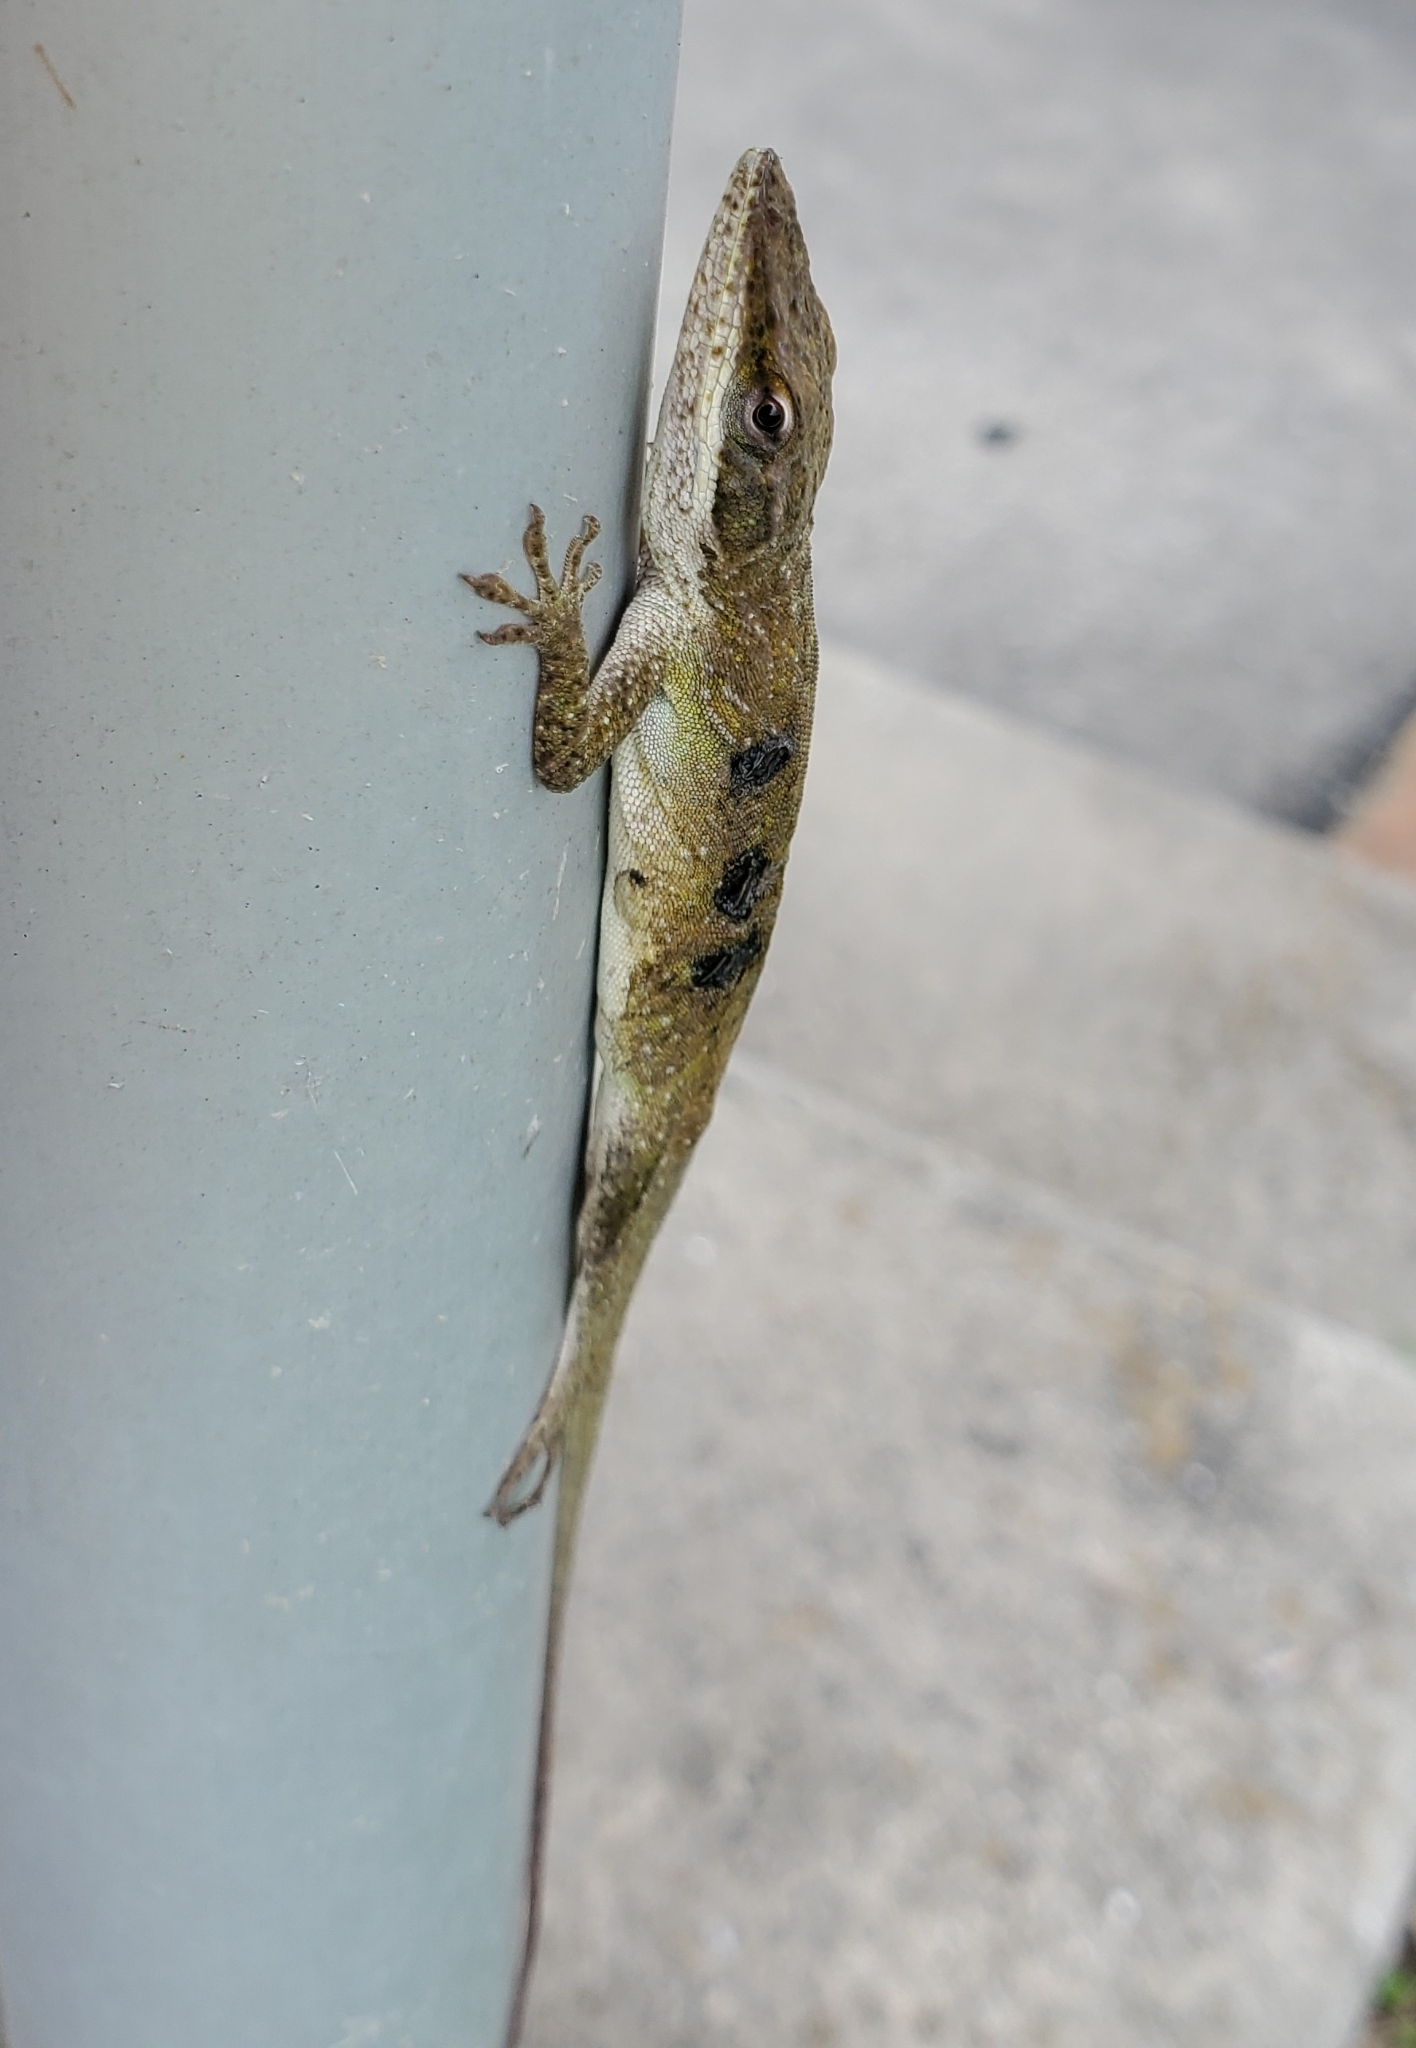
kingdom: Animalia
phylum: Chordata
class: Squamata
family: Dactyloidae
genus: Anolis
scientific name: Anolis carolinensis
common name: Green anole
